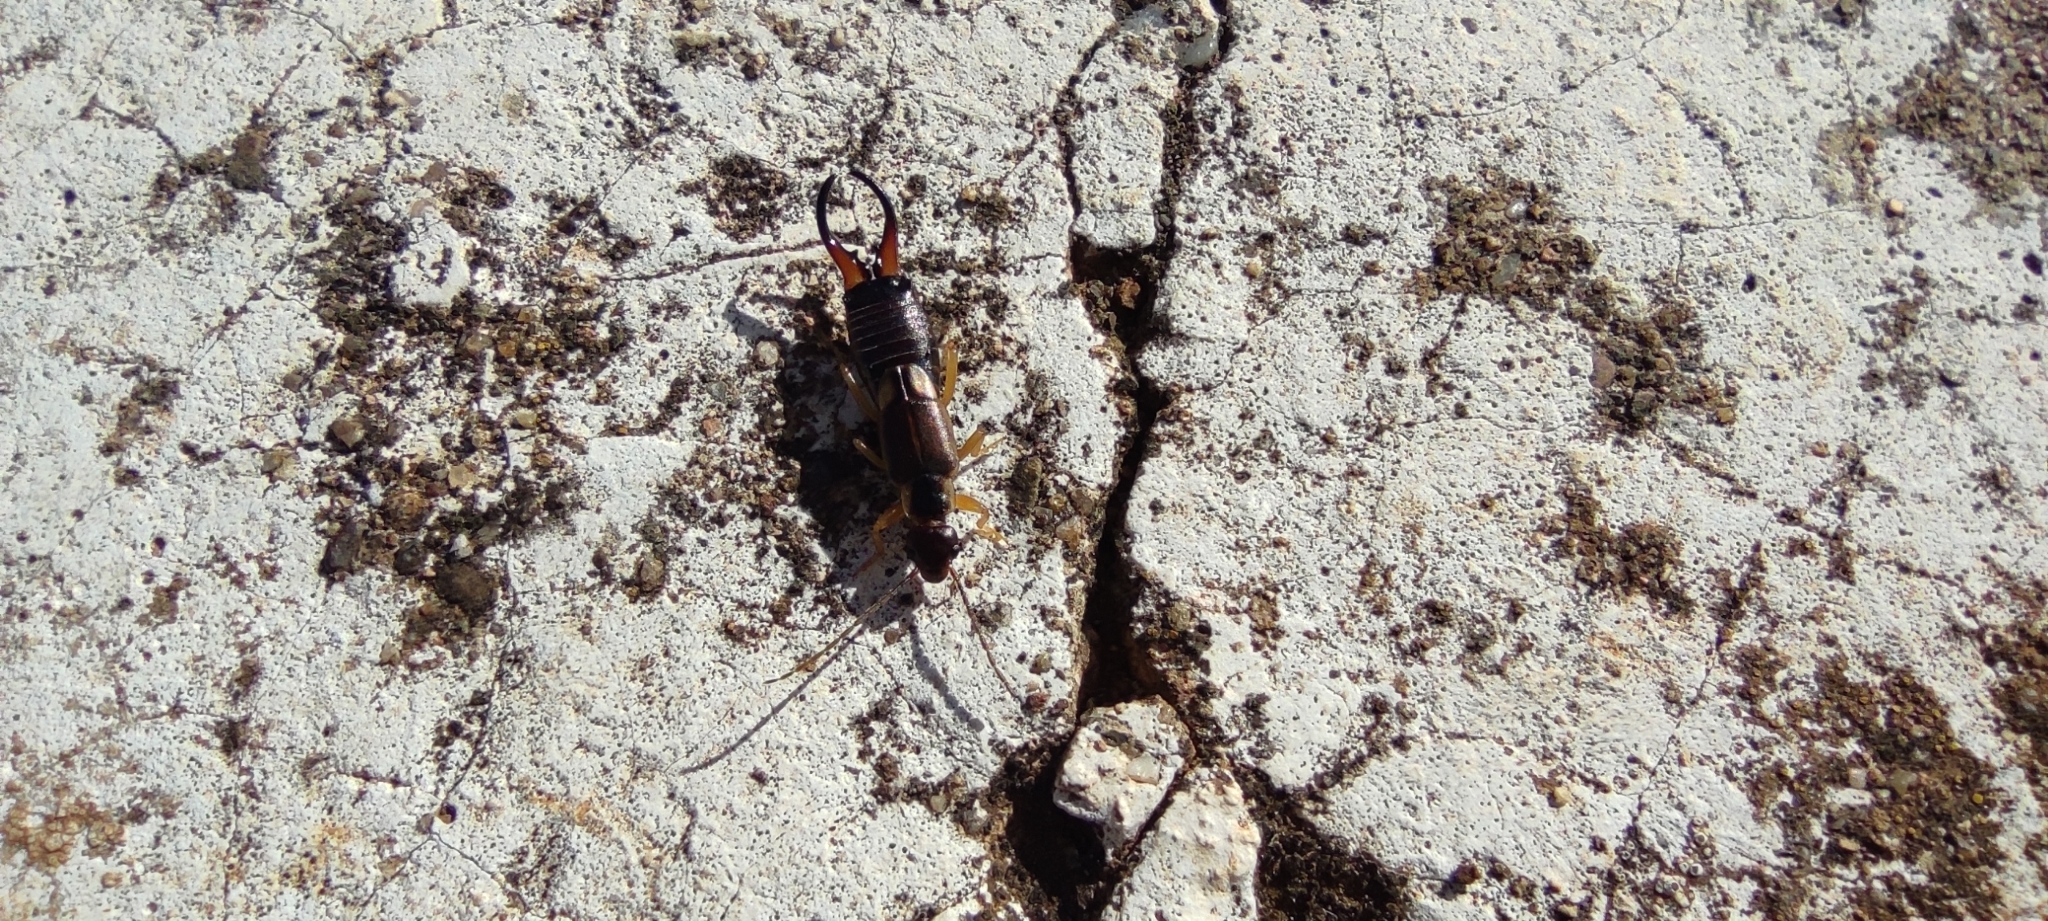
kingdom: Animalia
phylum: Arthropoda
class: Insecta
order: Dermaptera
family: Forficulidae
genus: Forficula
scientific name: Forficula dentata
